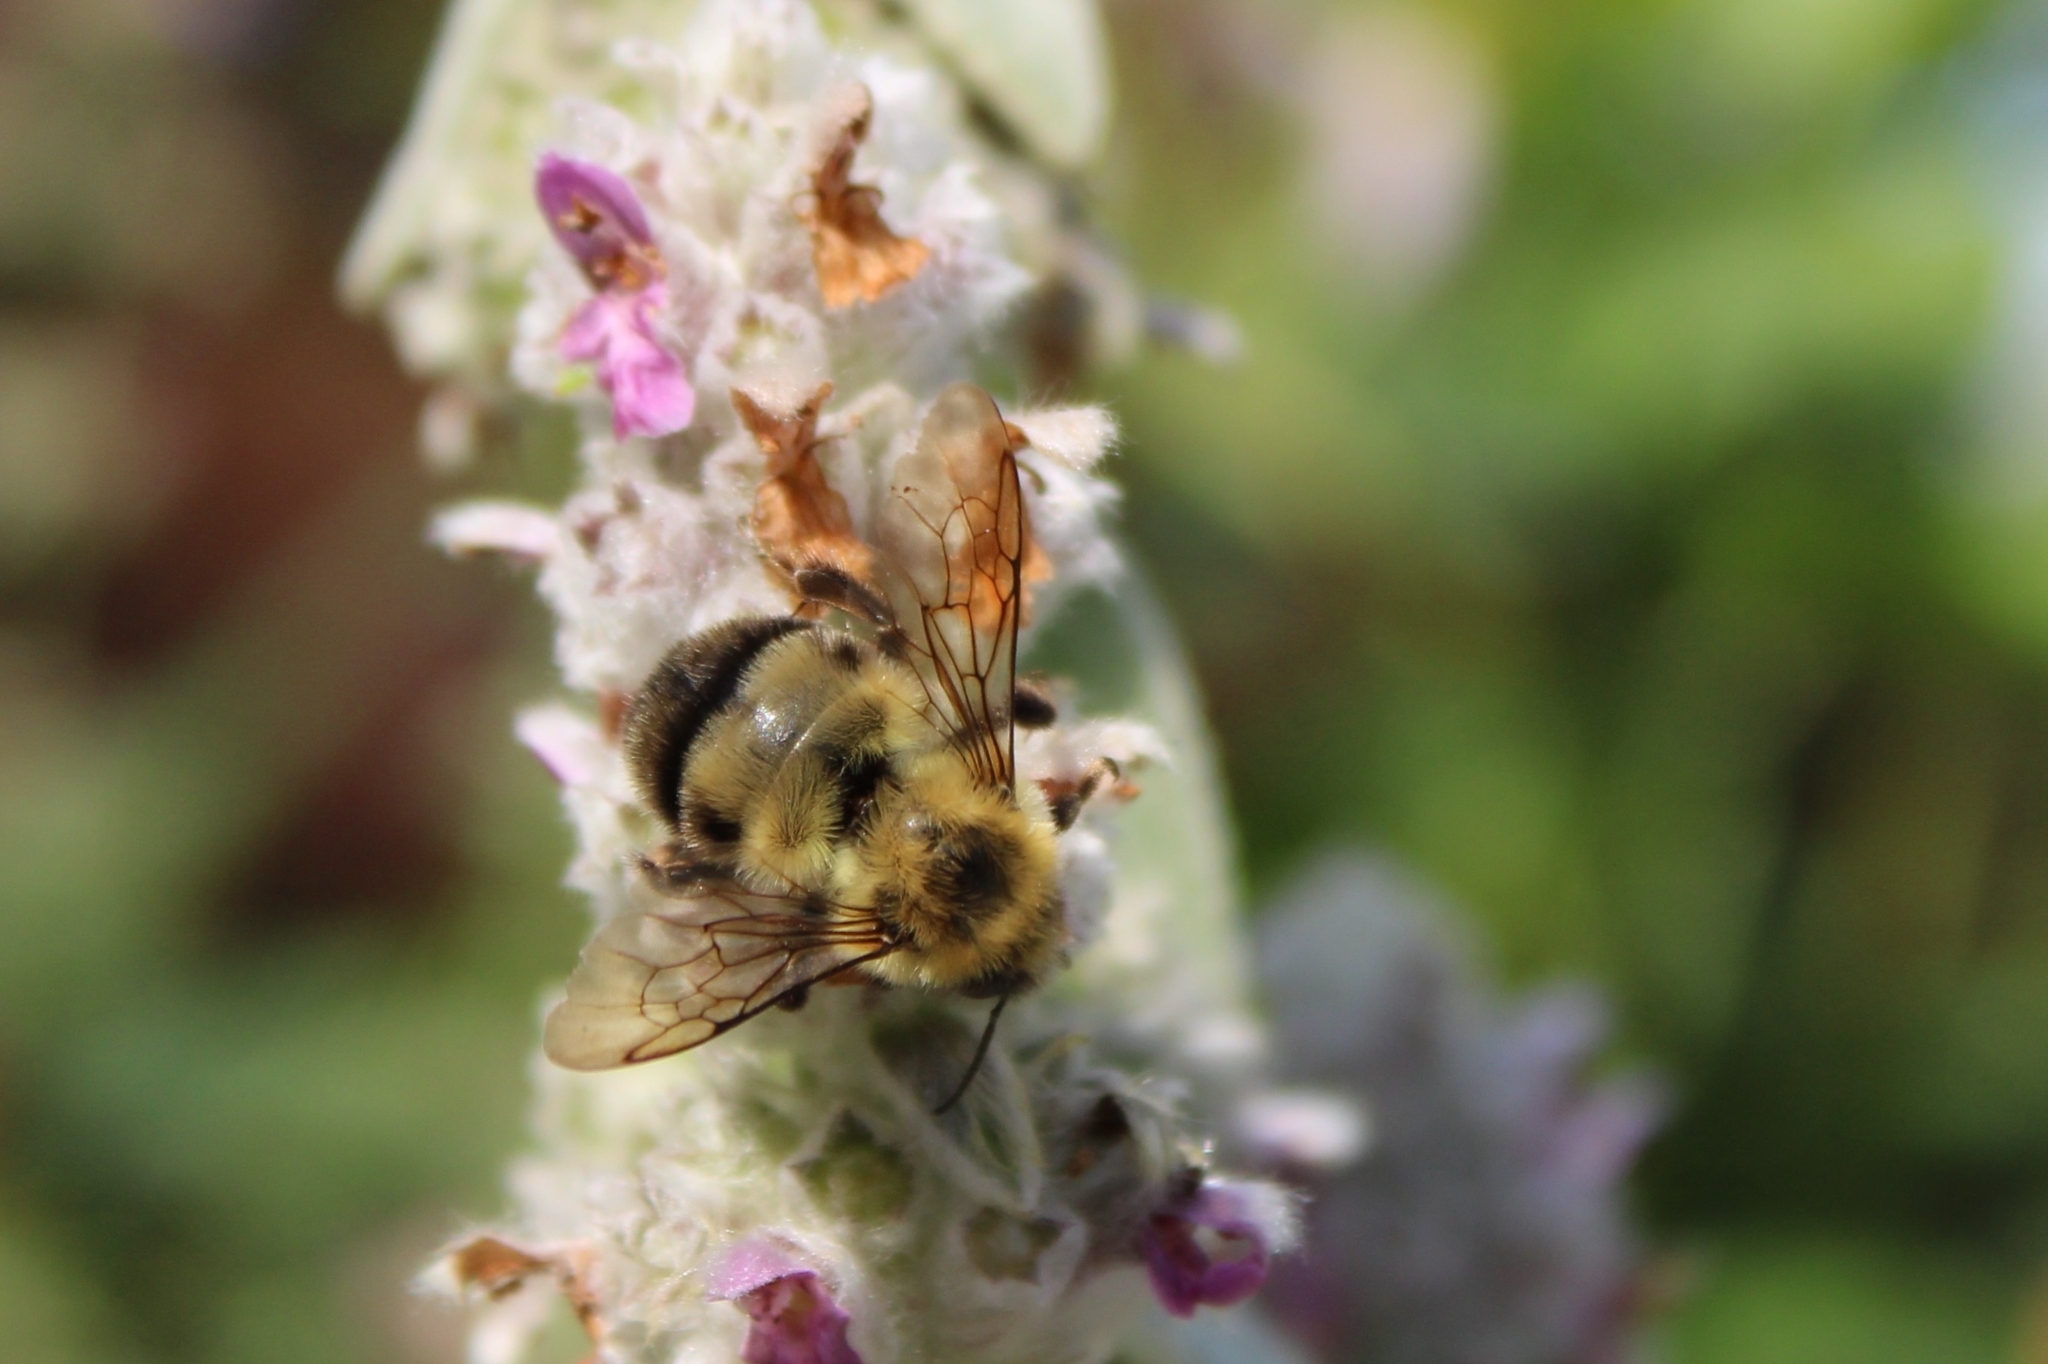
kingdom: Animalia
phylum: Arthropoda
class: Insecta
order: Hymenoptera
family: Apidae
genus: Bombus
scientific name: Bombus bimaculatus
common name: Two-spotted bumble bee
